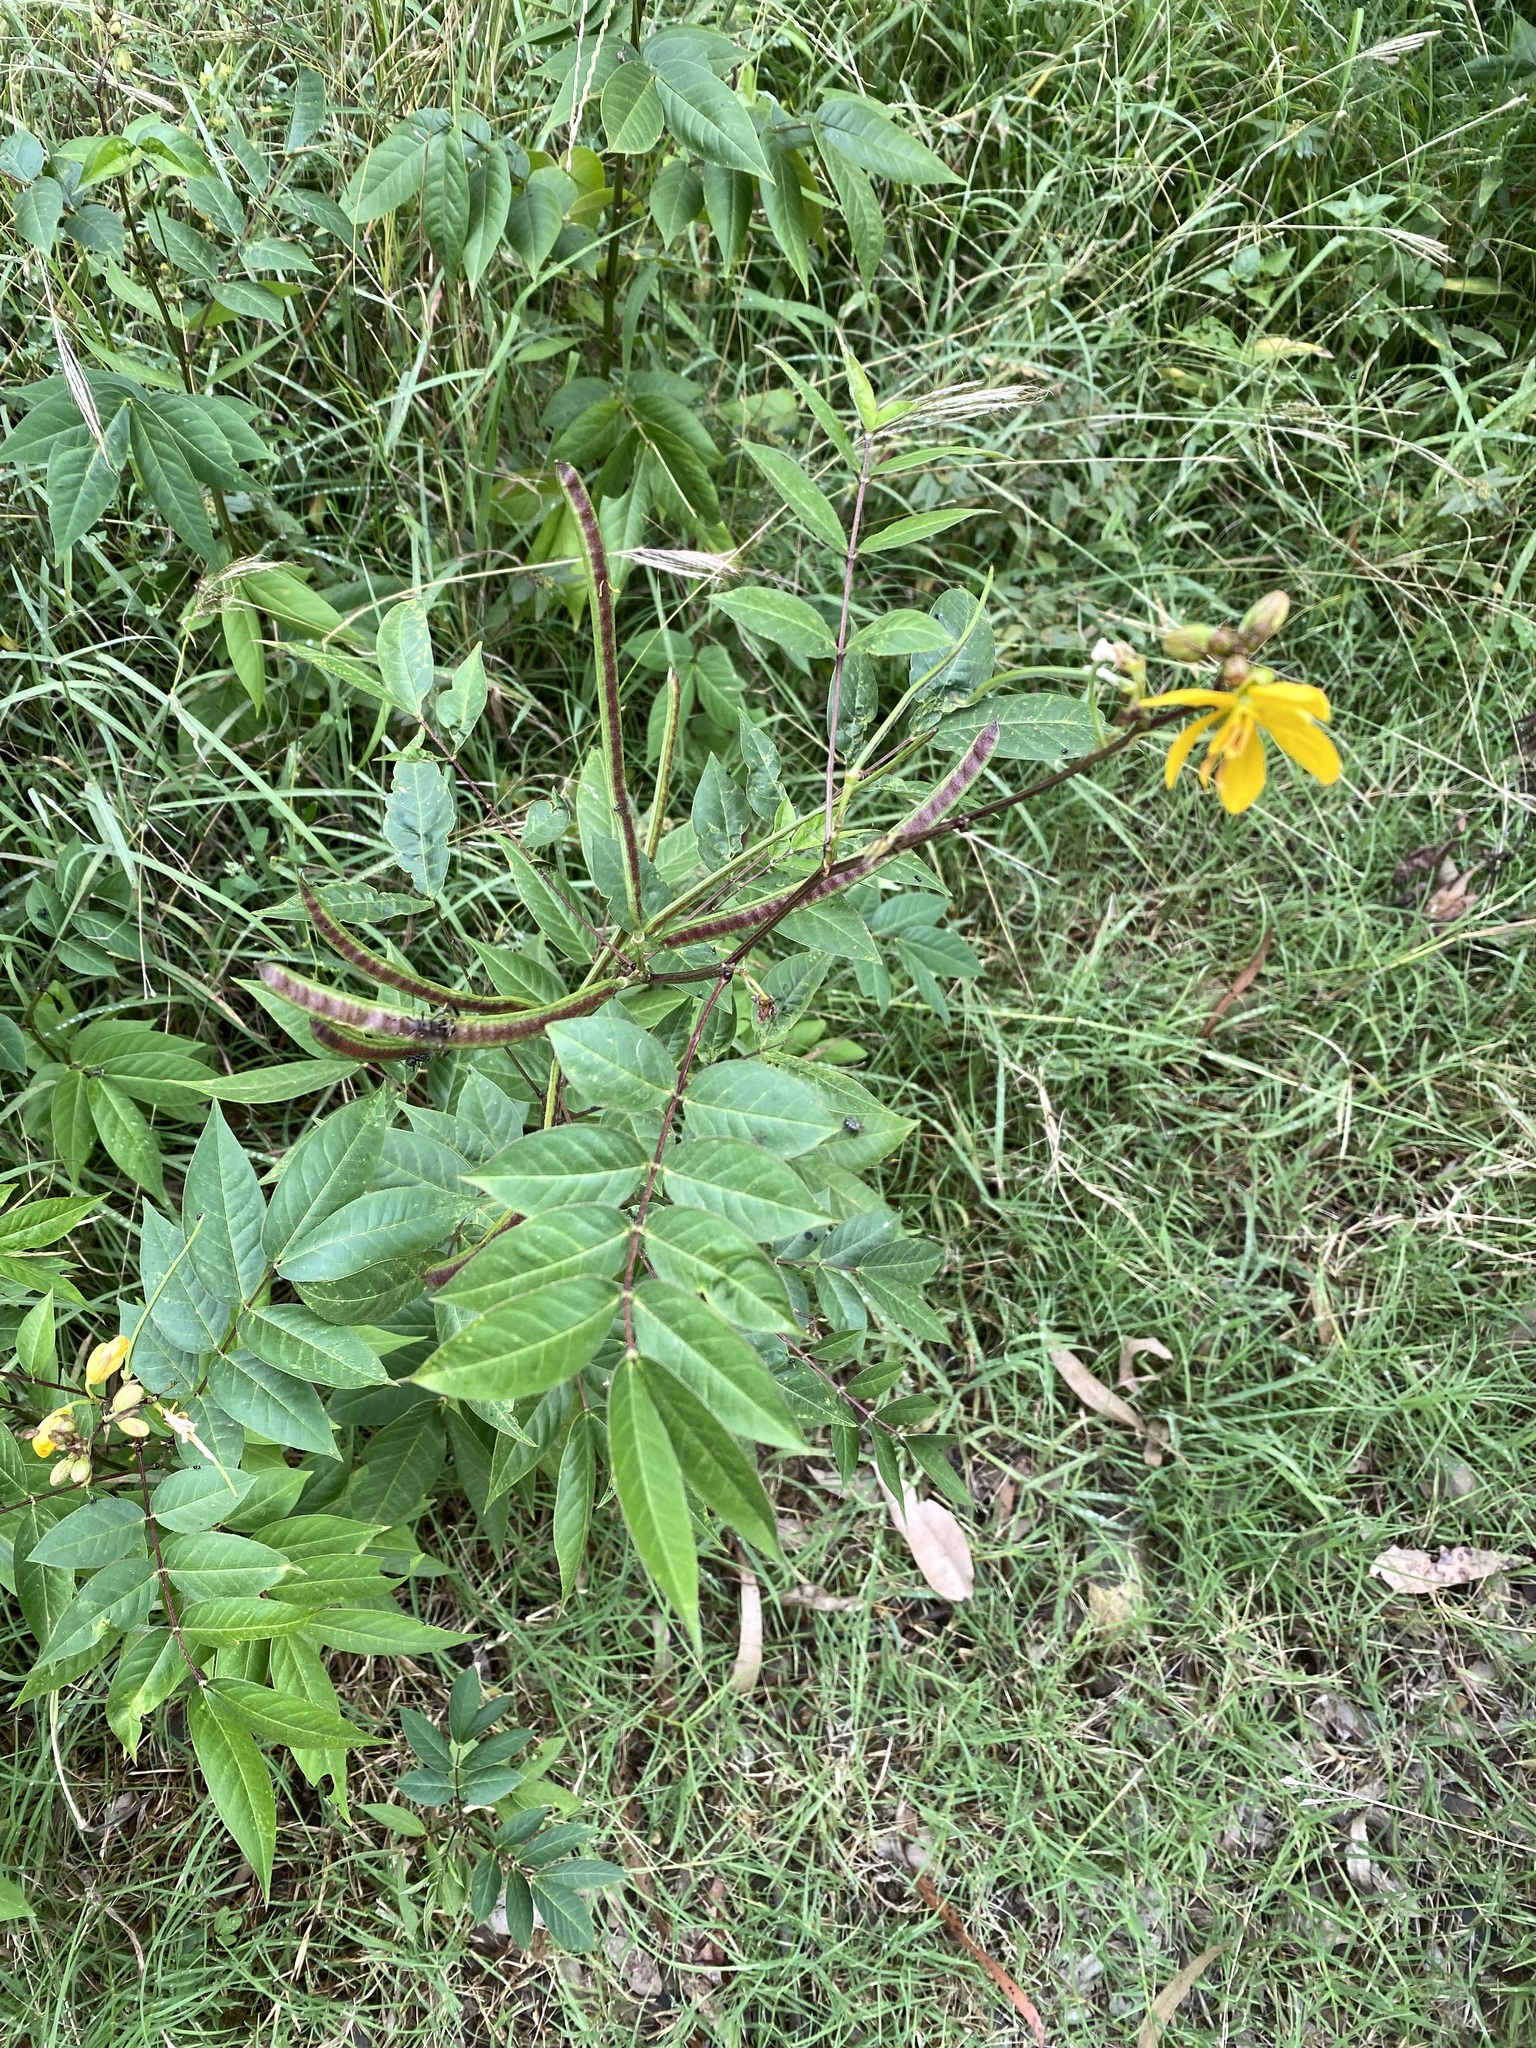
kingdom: Plantae
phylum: Tracheophyta
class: Magnoliopsida
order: Fabales
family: Fabaceae
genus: Senna
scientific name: Senna occidentalis
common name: Septicweed
